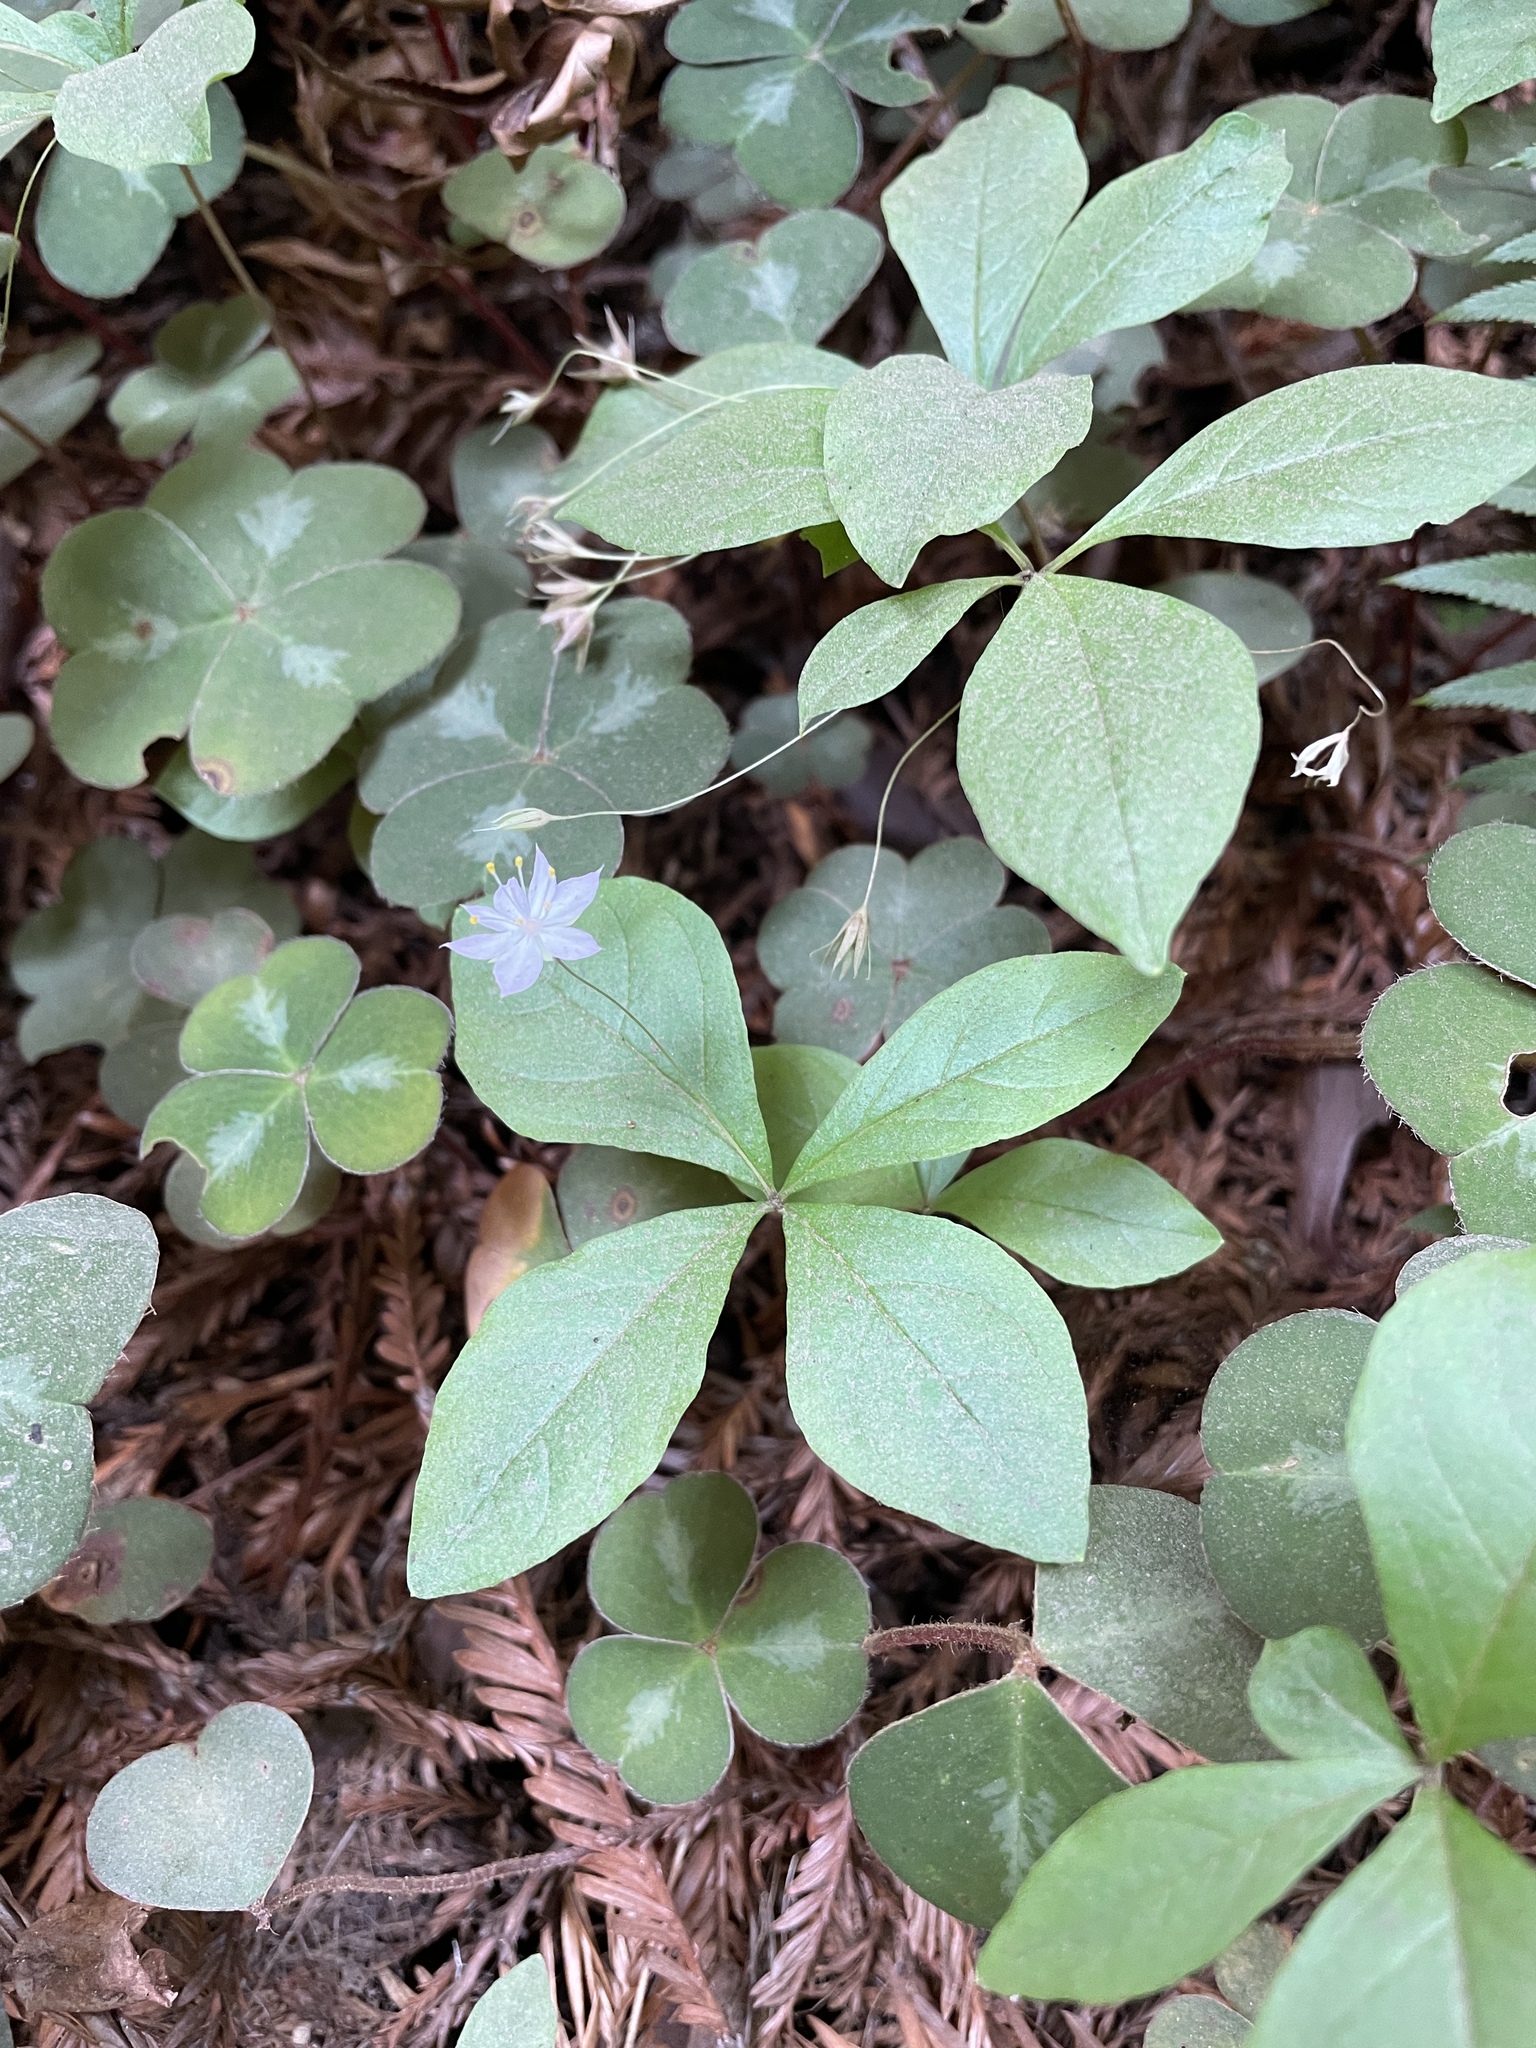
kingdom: Plantae
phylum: Tracheophyta
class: Magnoliopsida
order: Ericales
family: Primulaceae
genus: Lysimachia
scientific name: Lysimachia latifolia
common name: Pacific starflower
